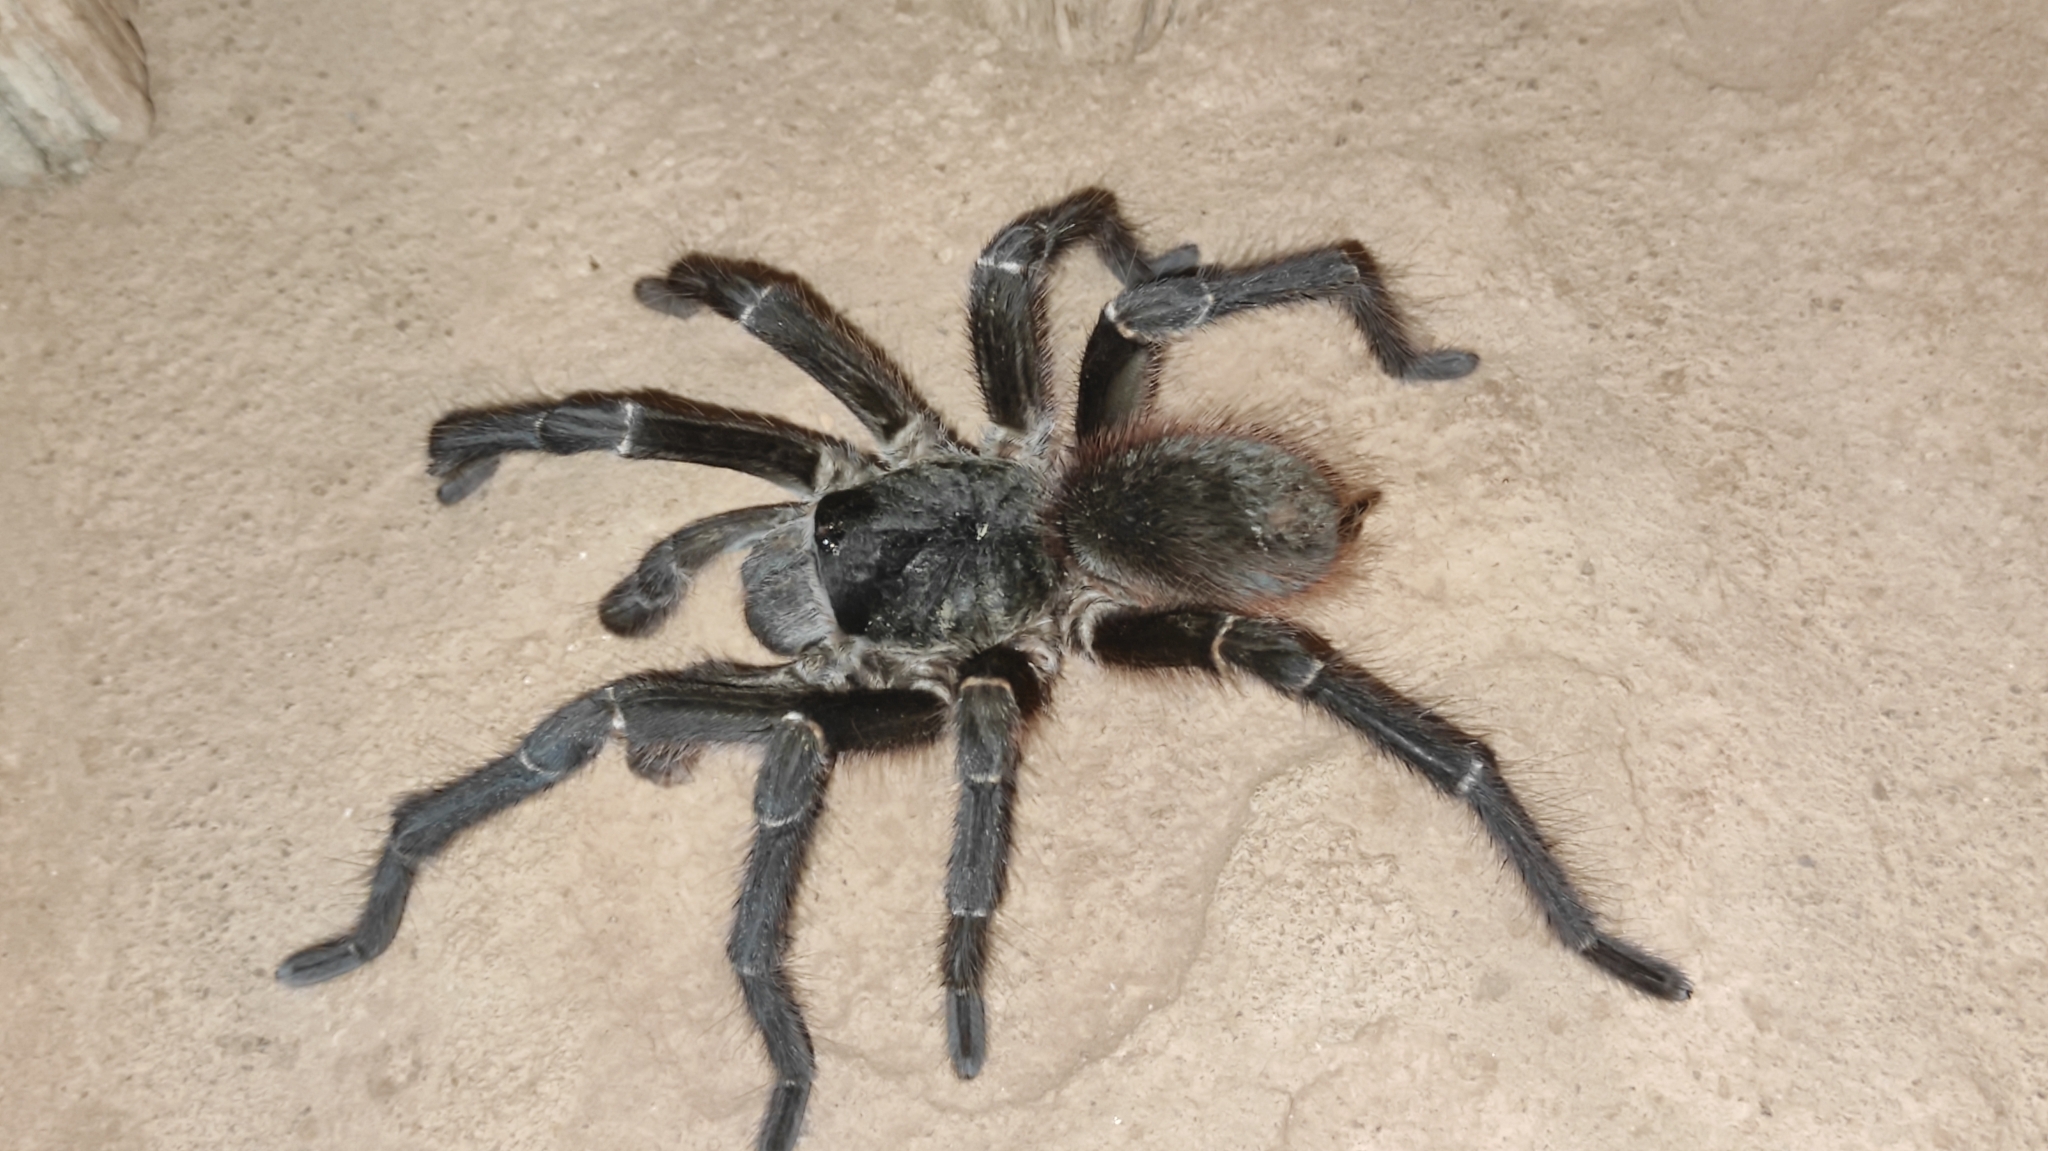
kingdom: Animalia
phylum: Arthropoda
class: Arachnida
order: Araneae
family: Theraphosidae
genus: Acanthoscurria
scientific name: Acanthoscurria natalensis
